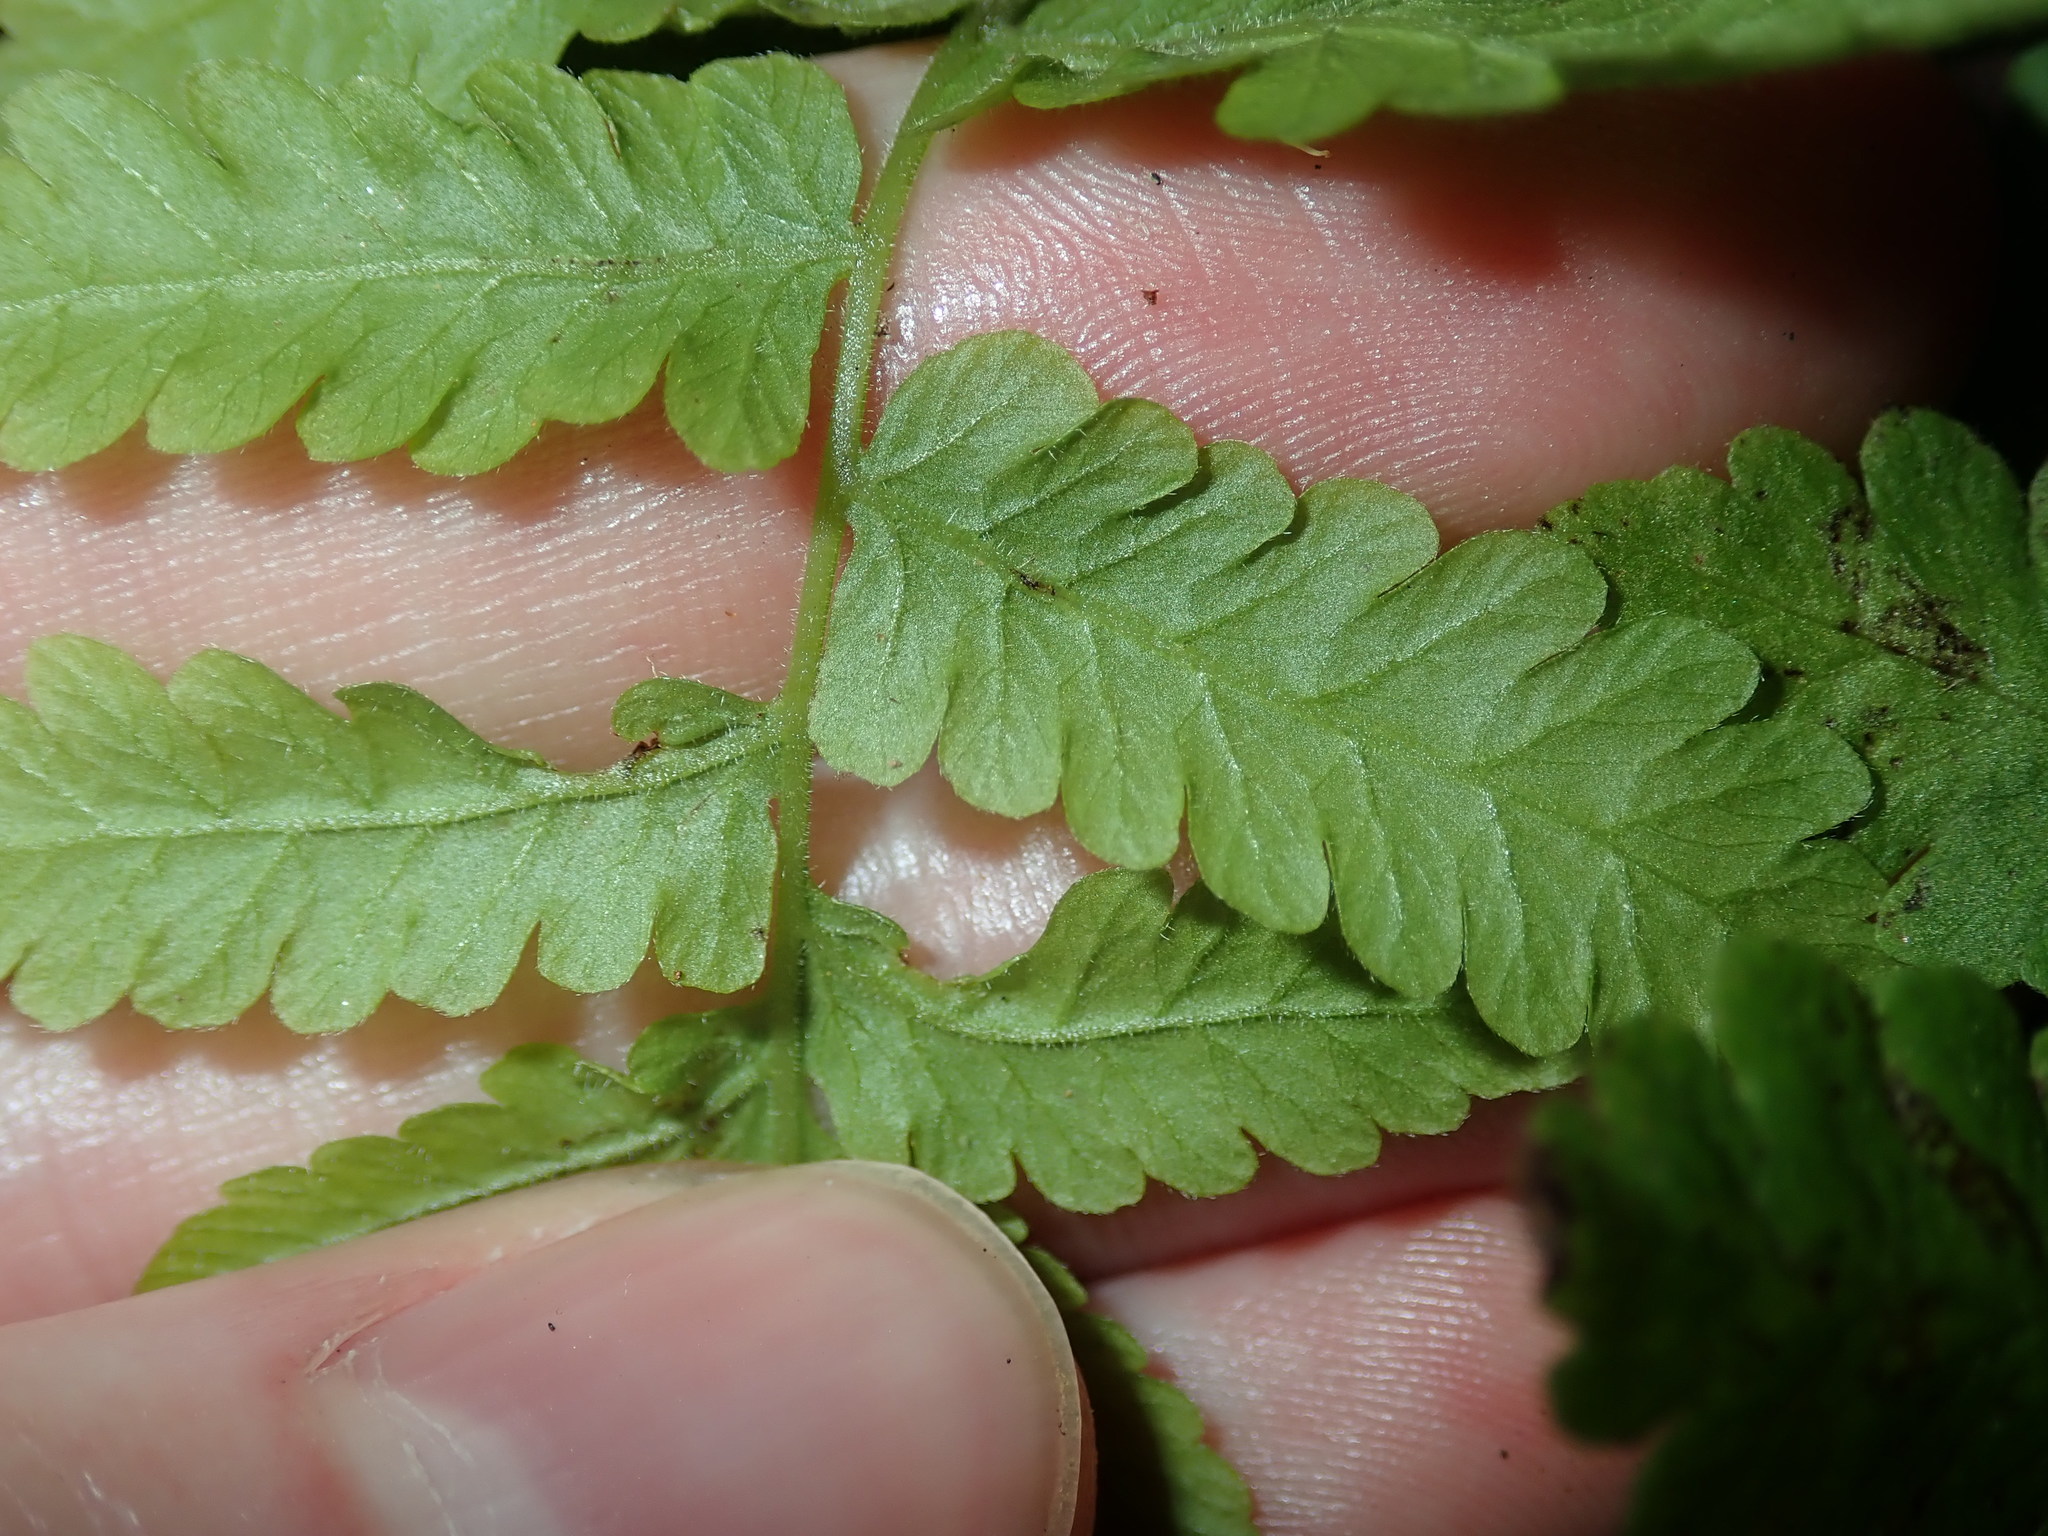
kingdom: Plantae
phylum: Tracheophyta
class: Polypodiopsida
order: Polypodiales
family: Thelypteridaceae
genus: Christella
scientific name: Christella dentata
